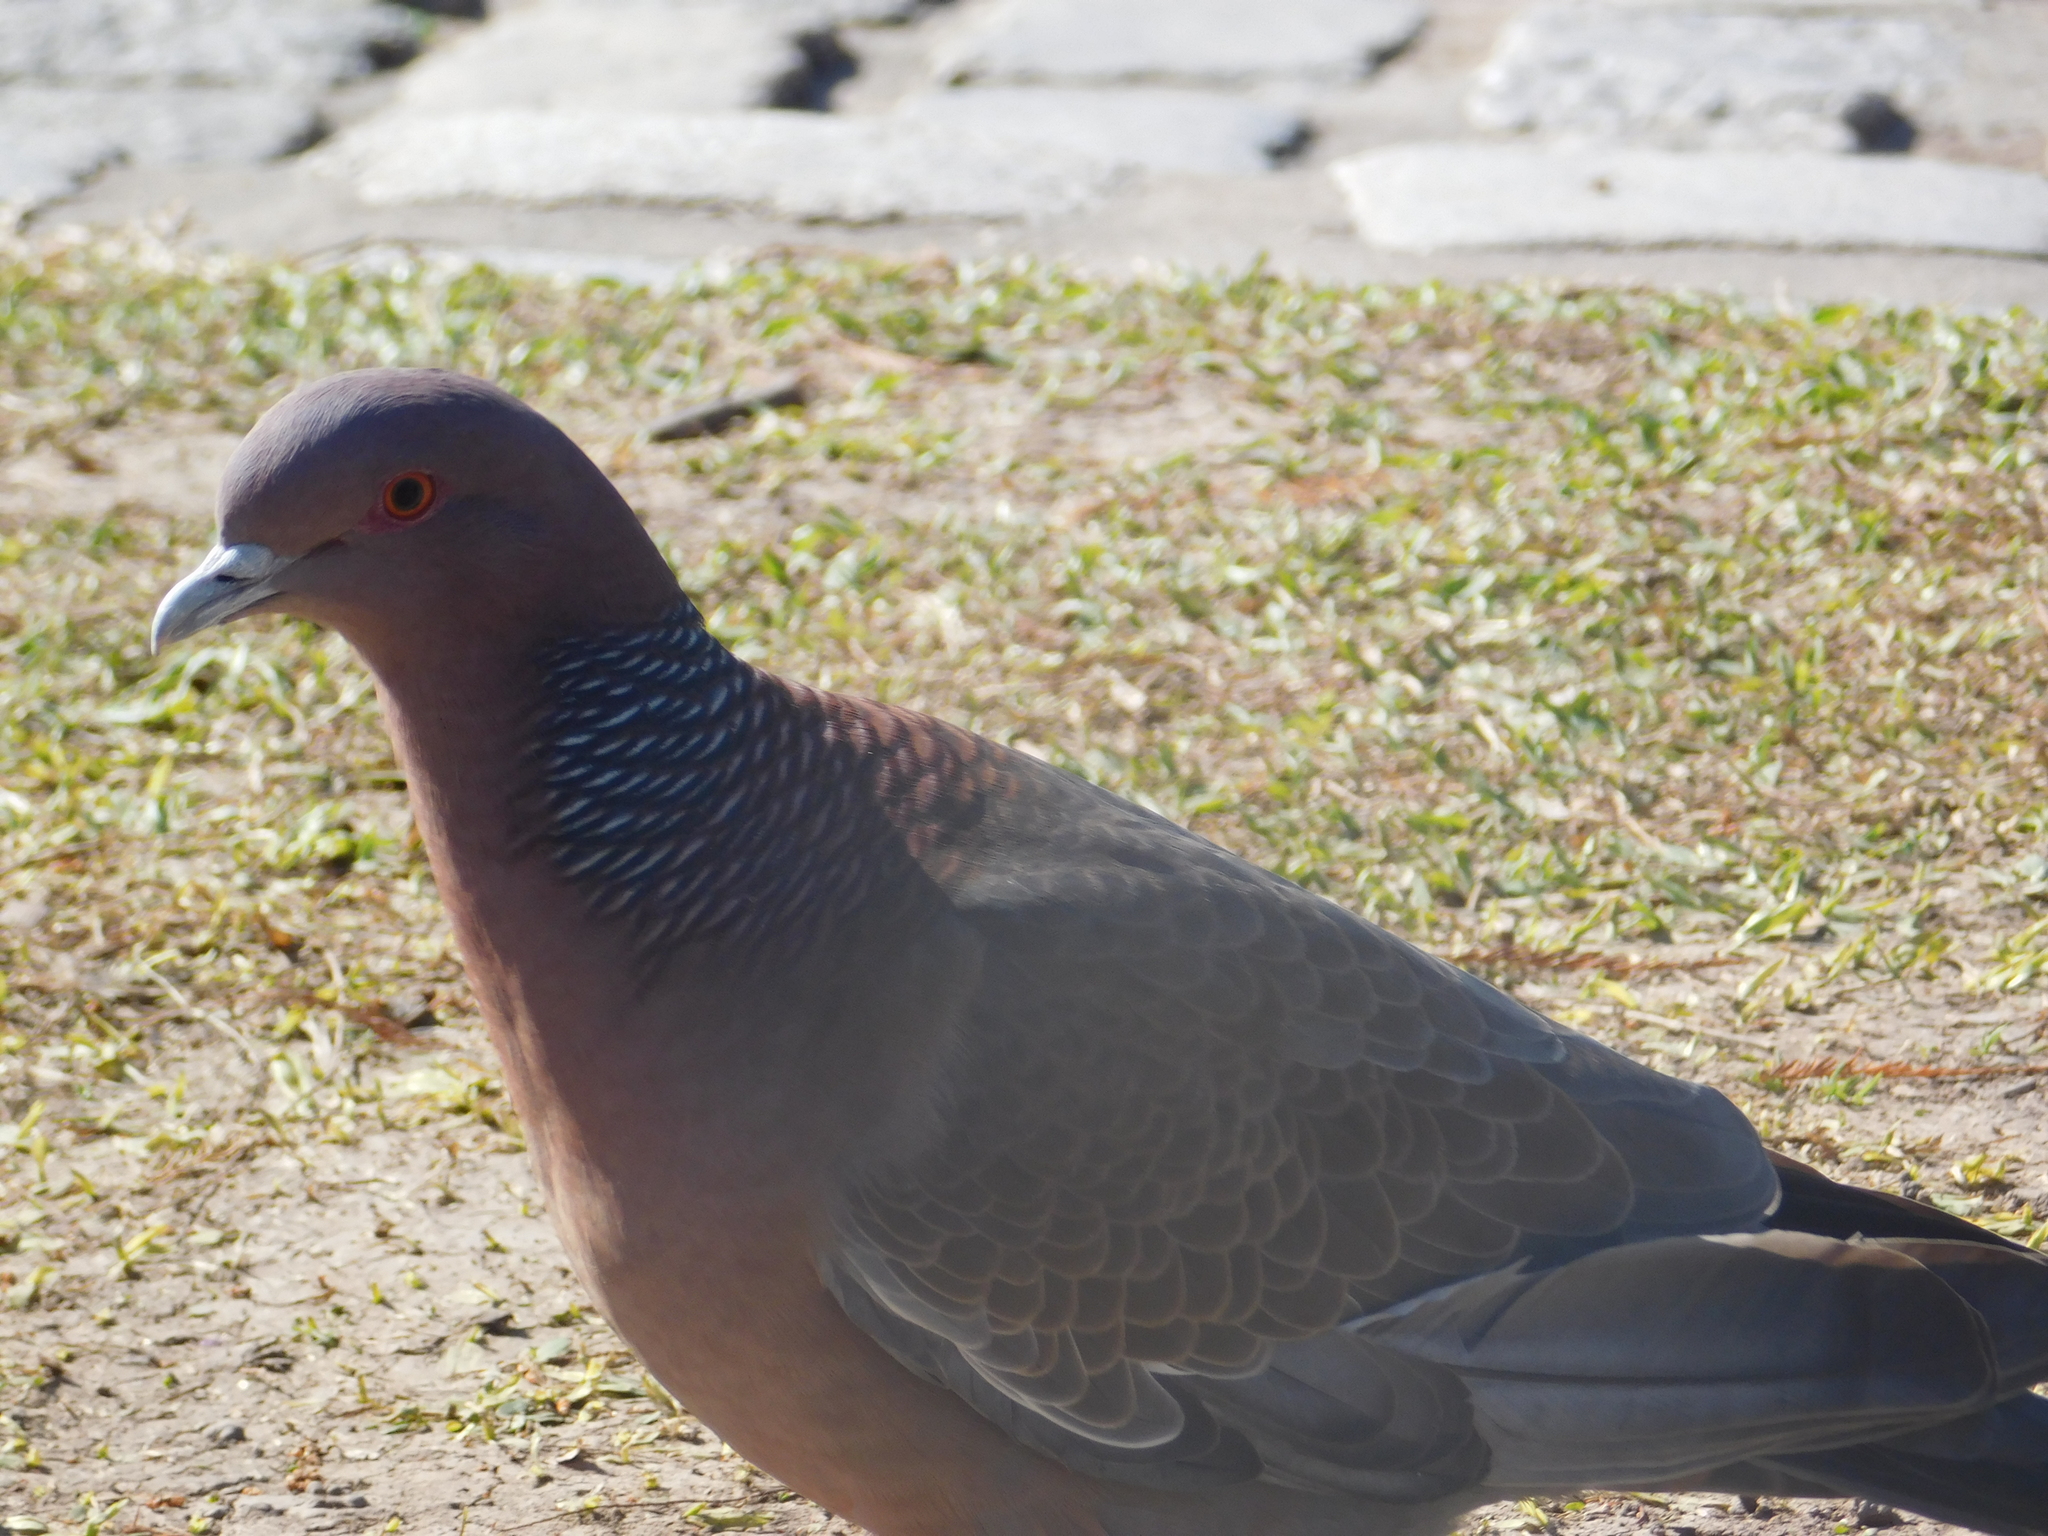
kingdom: Animalia
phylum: Chordata
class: Aves
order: Columbiformes
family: Columbidae
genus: Patagioenas
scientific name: Patagioenas picazuro
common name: Picazuro pigeon
